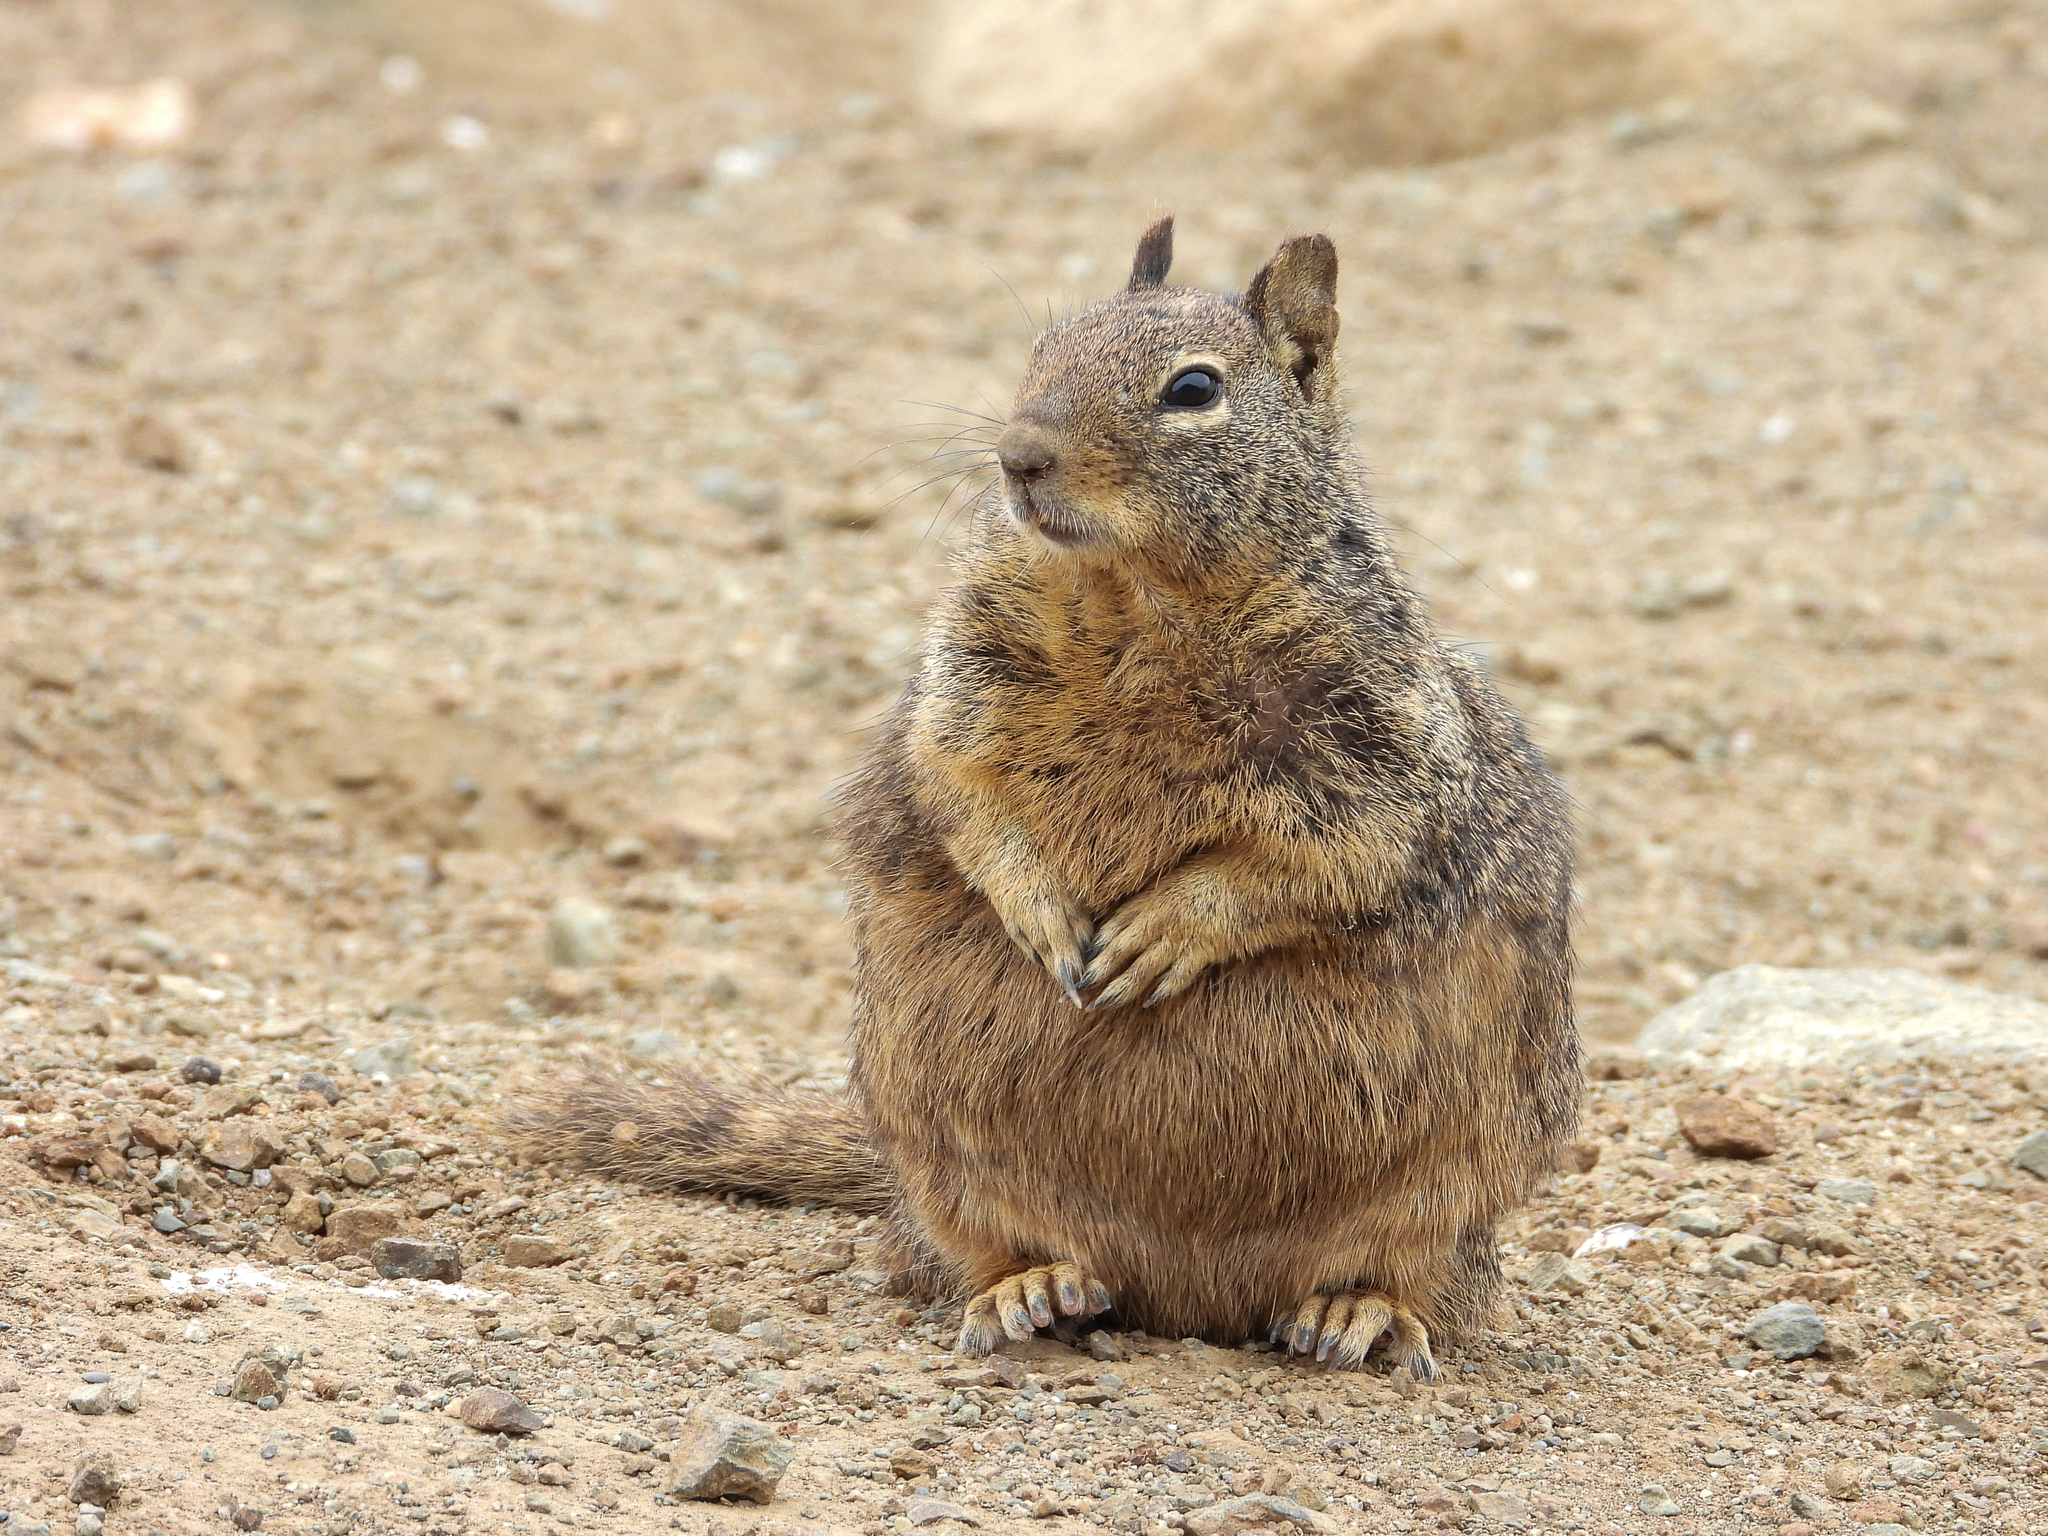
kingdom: Animalia
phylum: Chordata
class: Mammalia
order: Rodentia
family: Sciuridae
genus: Otospermophilus
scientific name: Otospermophilus beecheyi
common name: California ground squirrel
